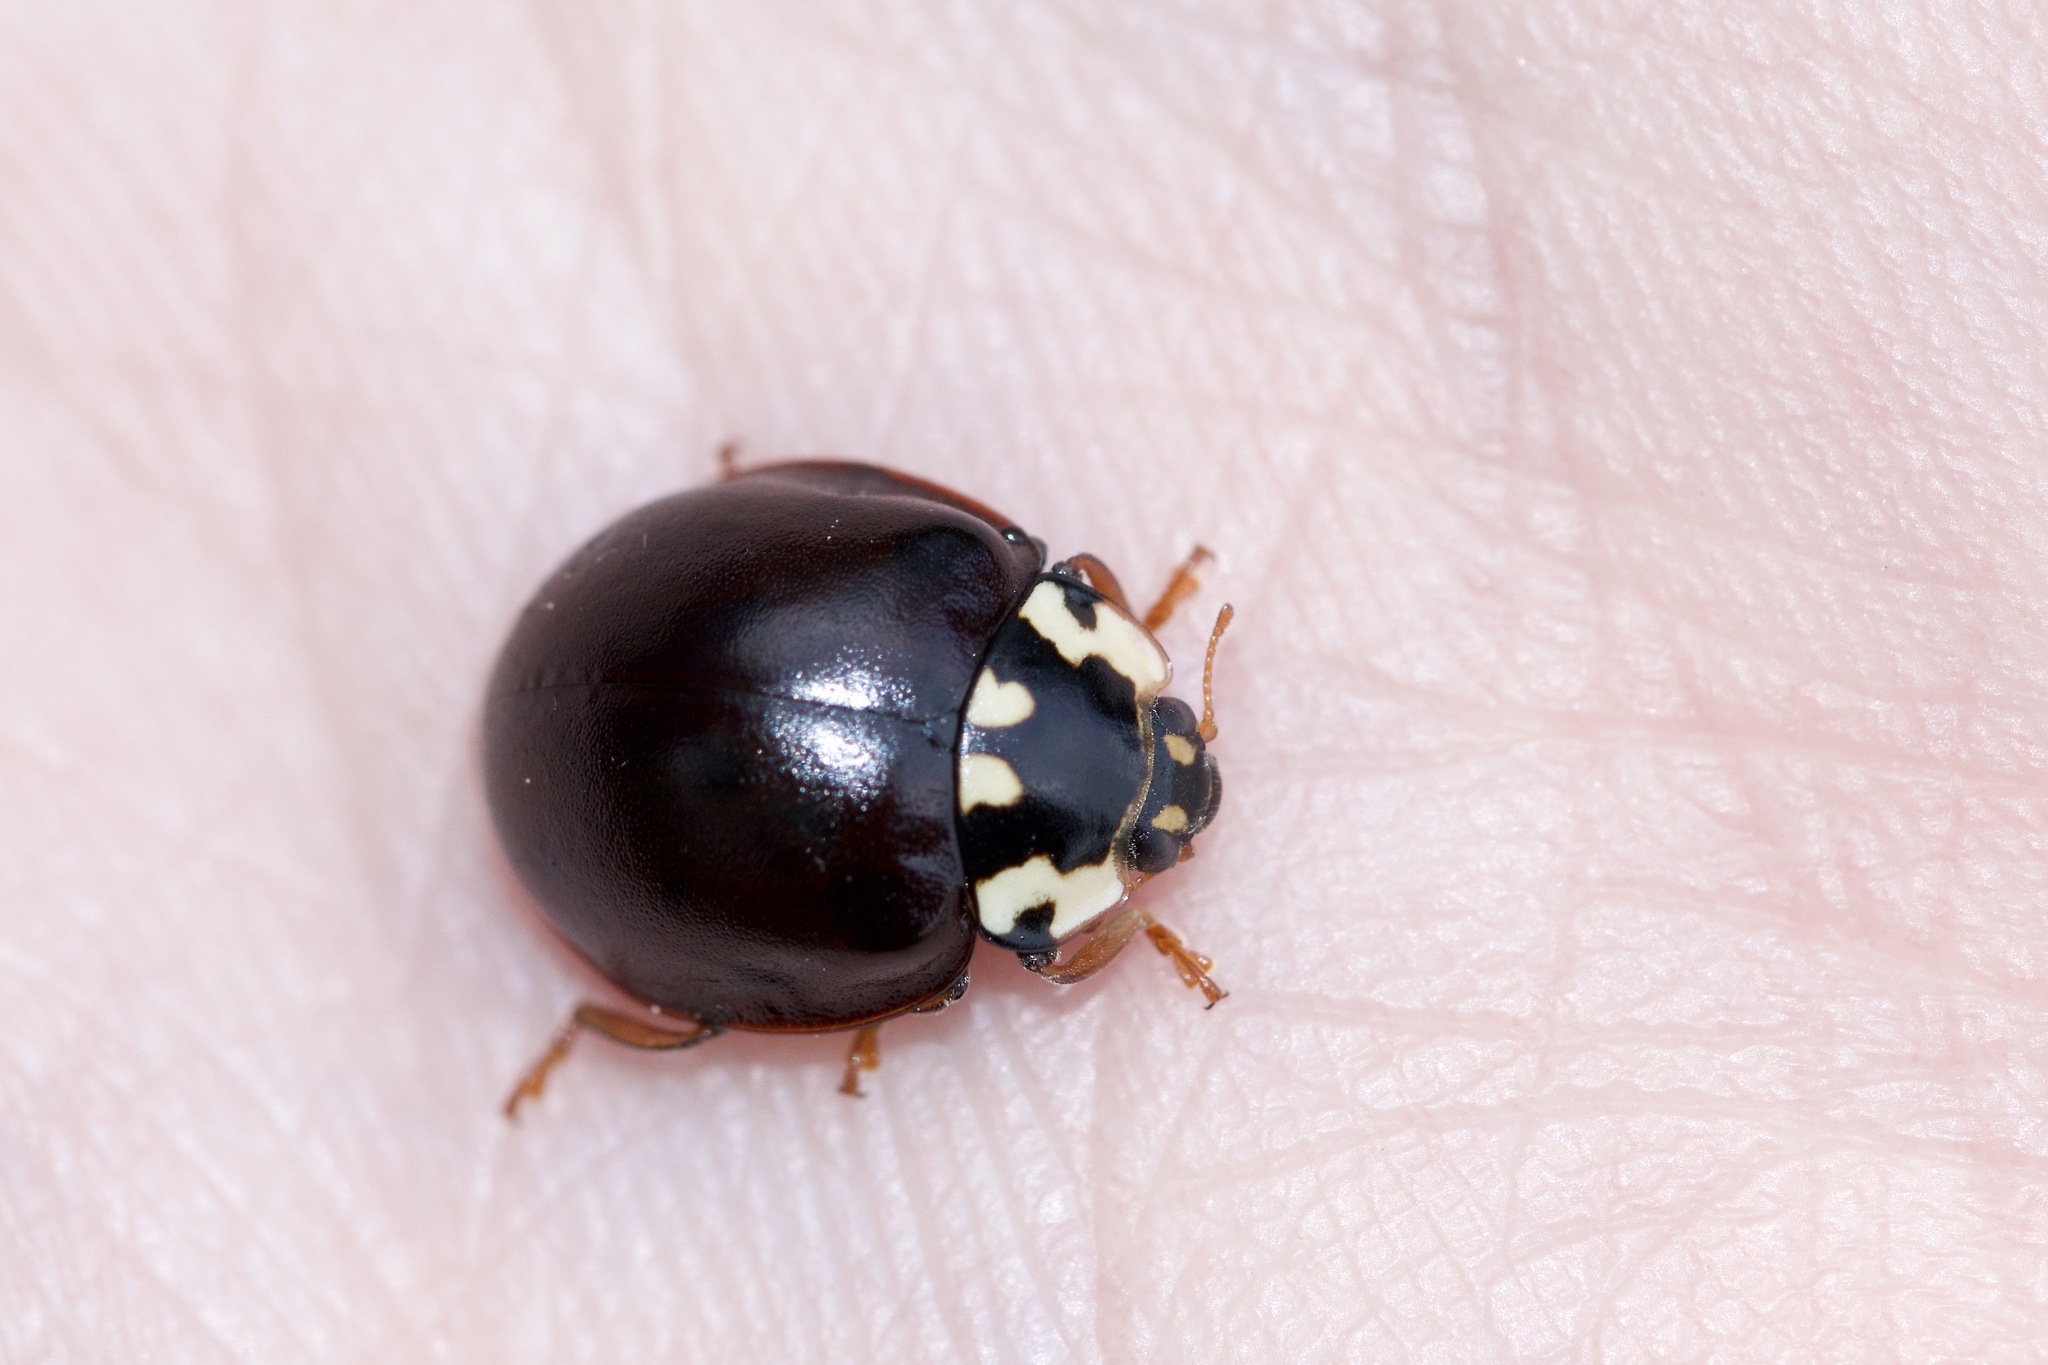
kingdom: Animalia
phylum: Arthropoda
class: Insecta
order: Coleoptera
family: Coccinellidae
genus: Anatis
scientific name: Anatis labiculata
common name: Fifteen-spotted lady beetle
